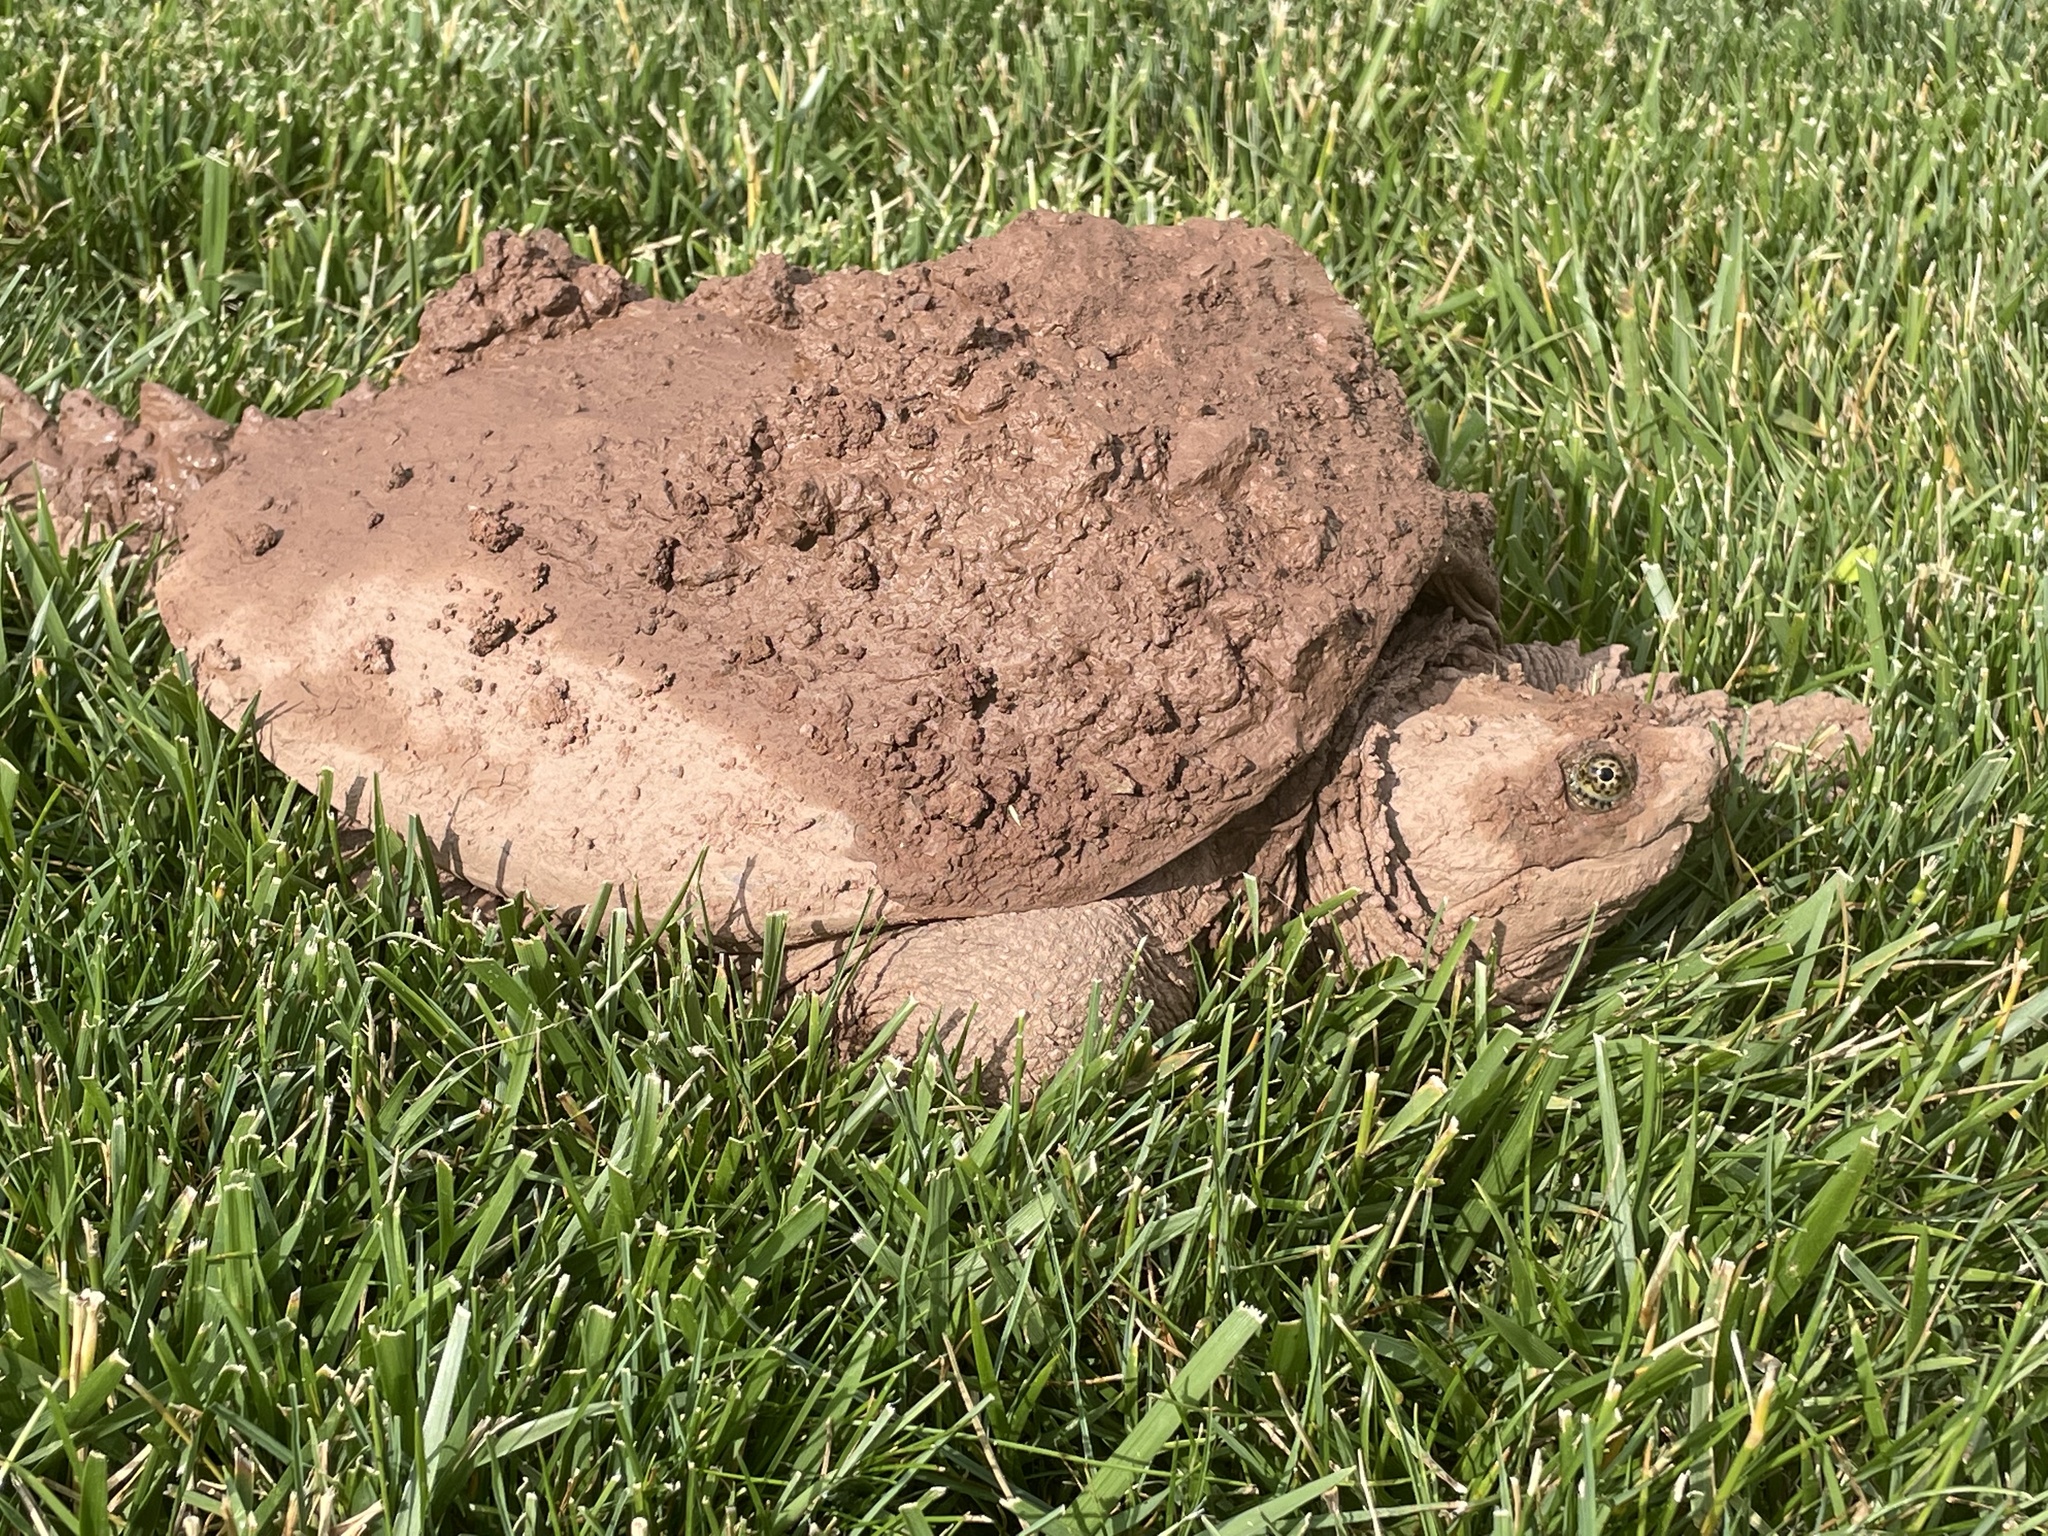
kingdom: Animalia
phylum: Chordata
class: Testudines
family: Chelydridae
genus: Chelydra
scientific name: Chelydra serpentina
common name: Common snapping turtle
